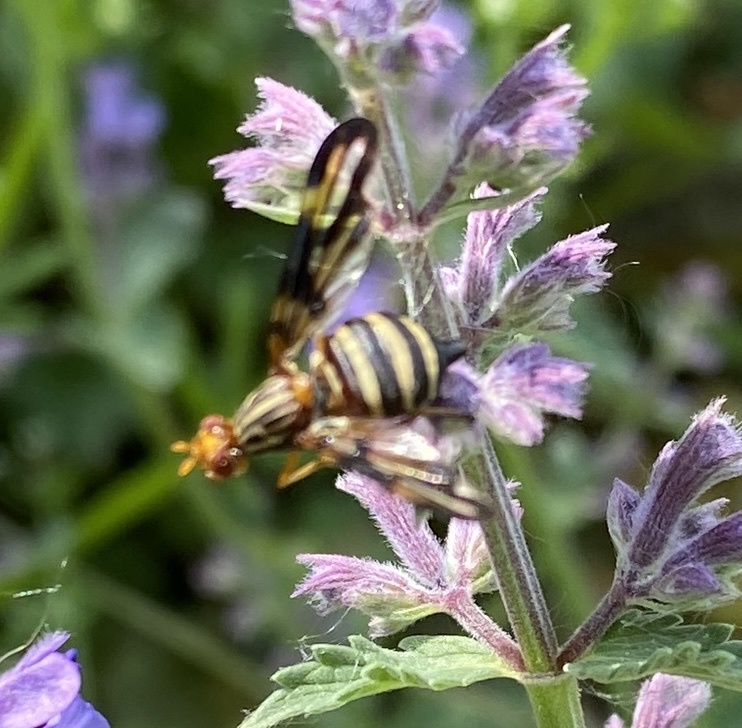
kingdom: Animalia
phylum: Arthropoda
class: Insecta
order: Diptera
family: Ulidiidae
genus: Idana
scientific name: Idana marginata
